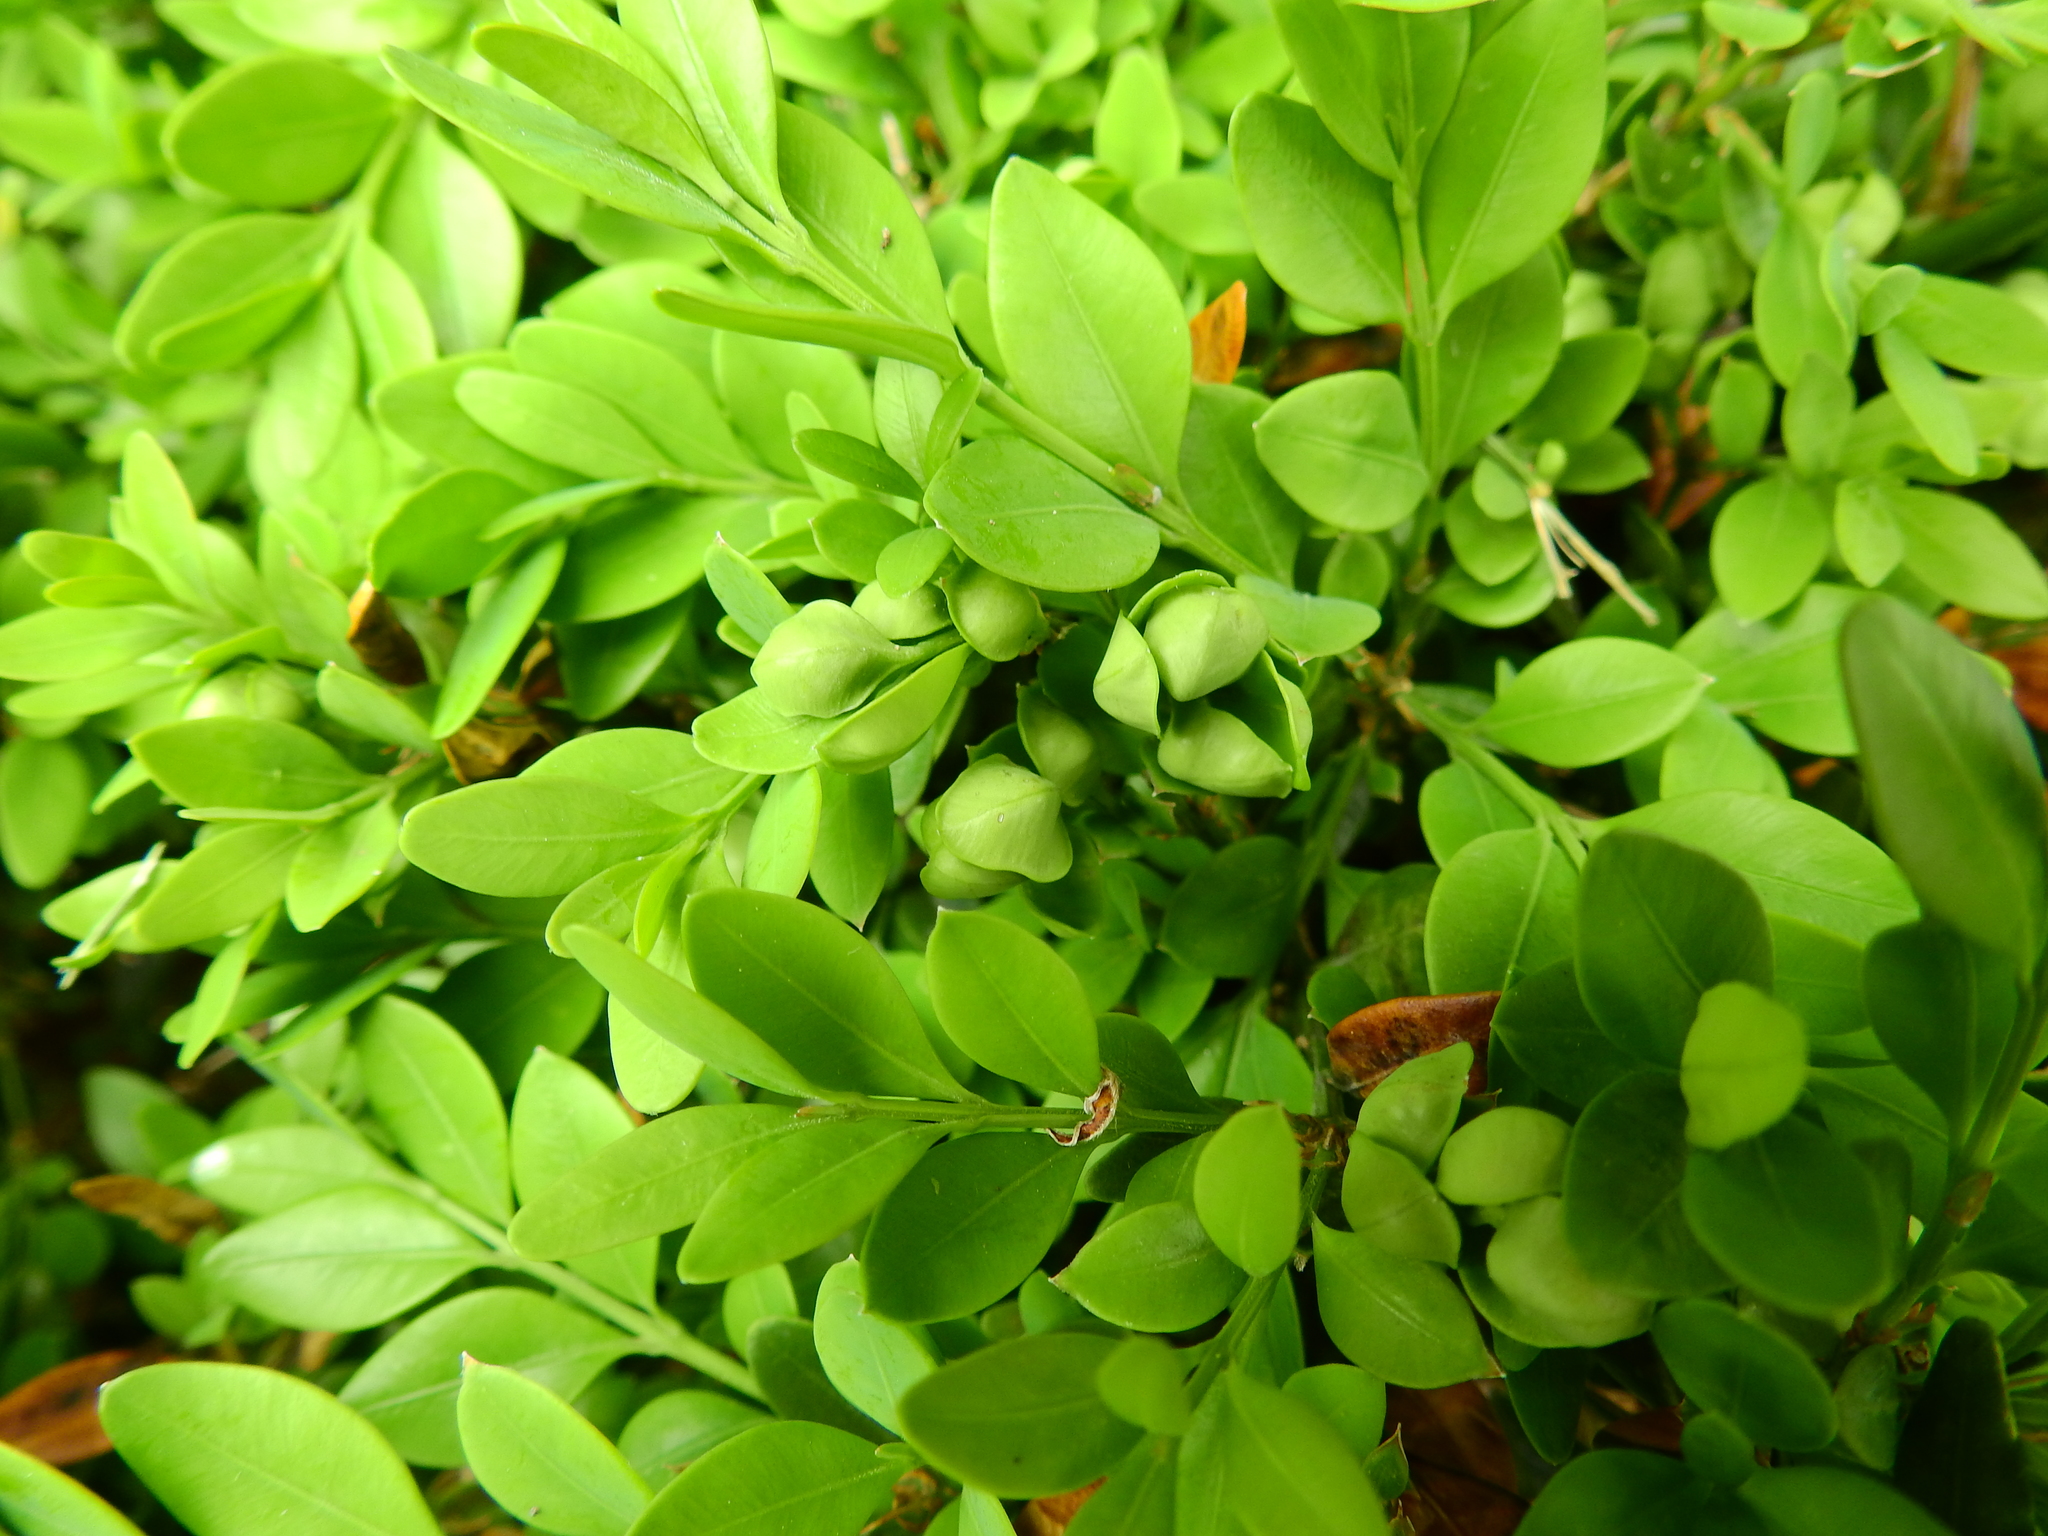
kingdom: Animalia
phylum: Arthropoda
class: Insecta
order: Hemiptera
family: Psyllidae
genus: Psylla
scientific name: Psylla buxi
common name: Boxwood psyllid
